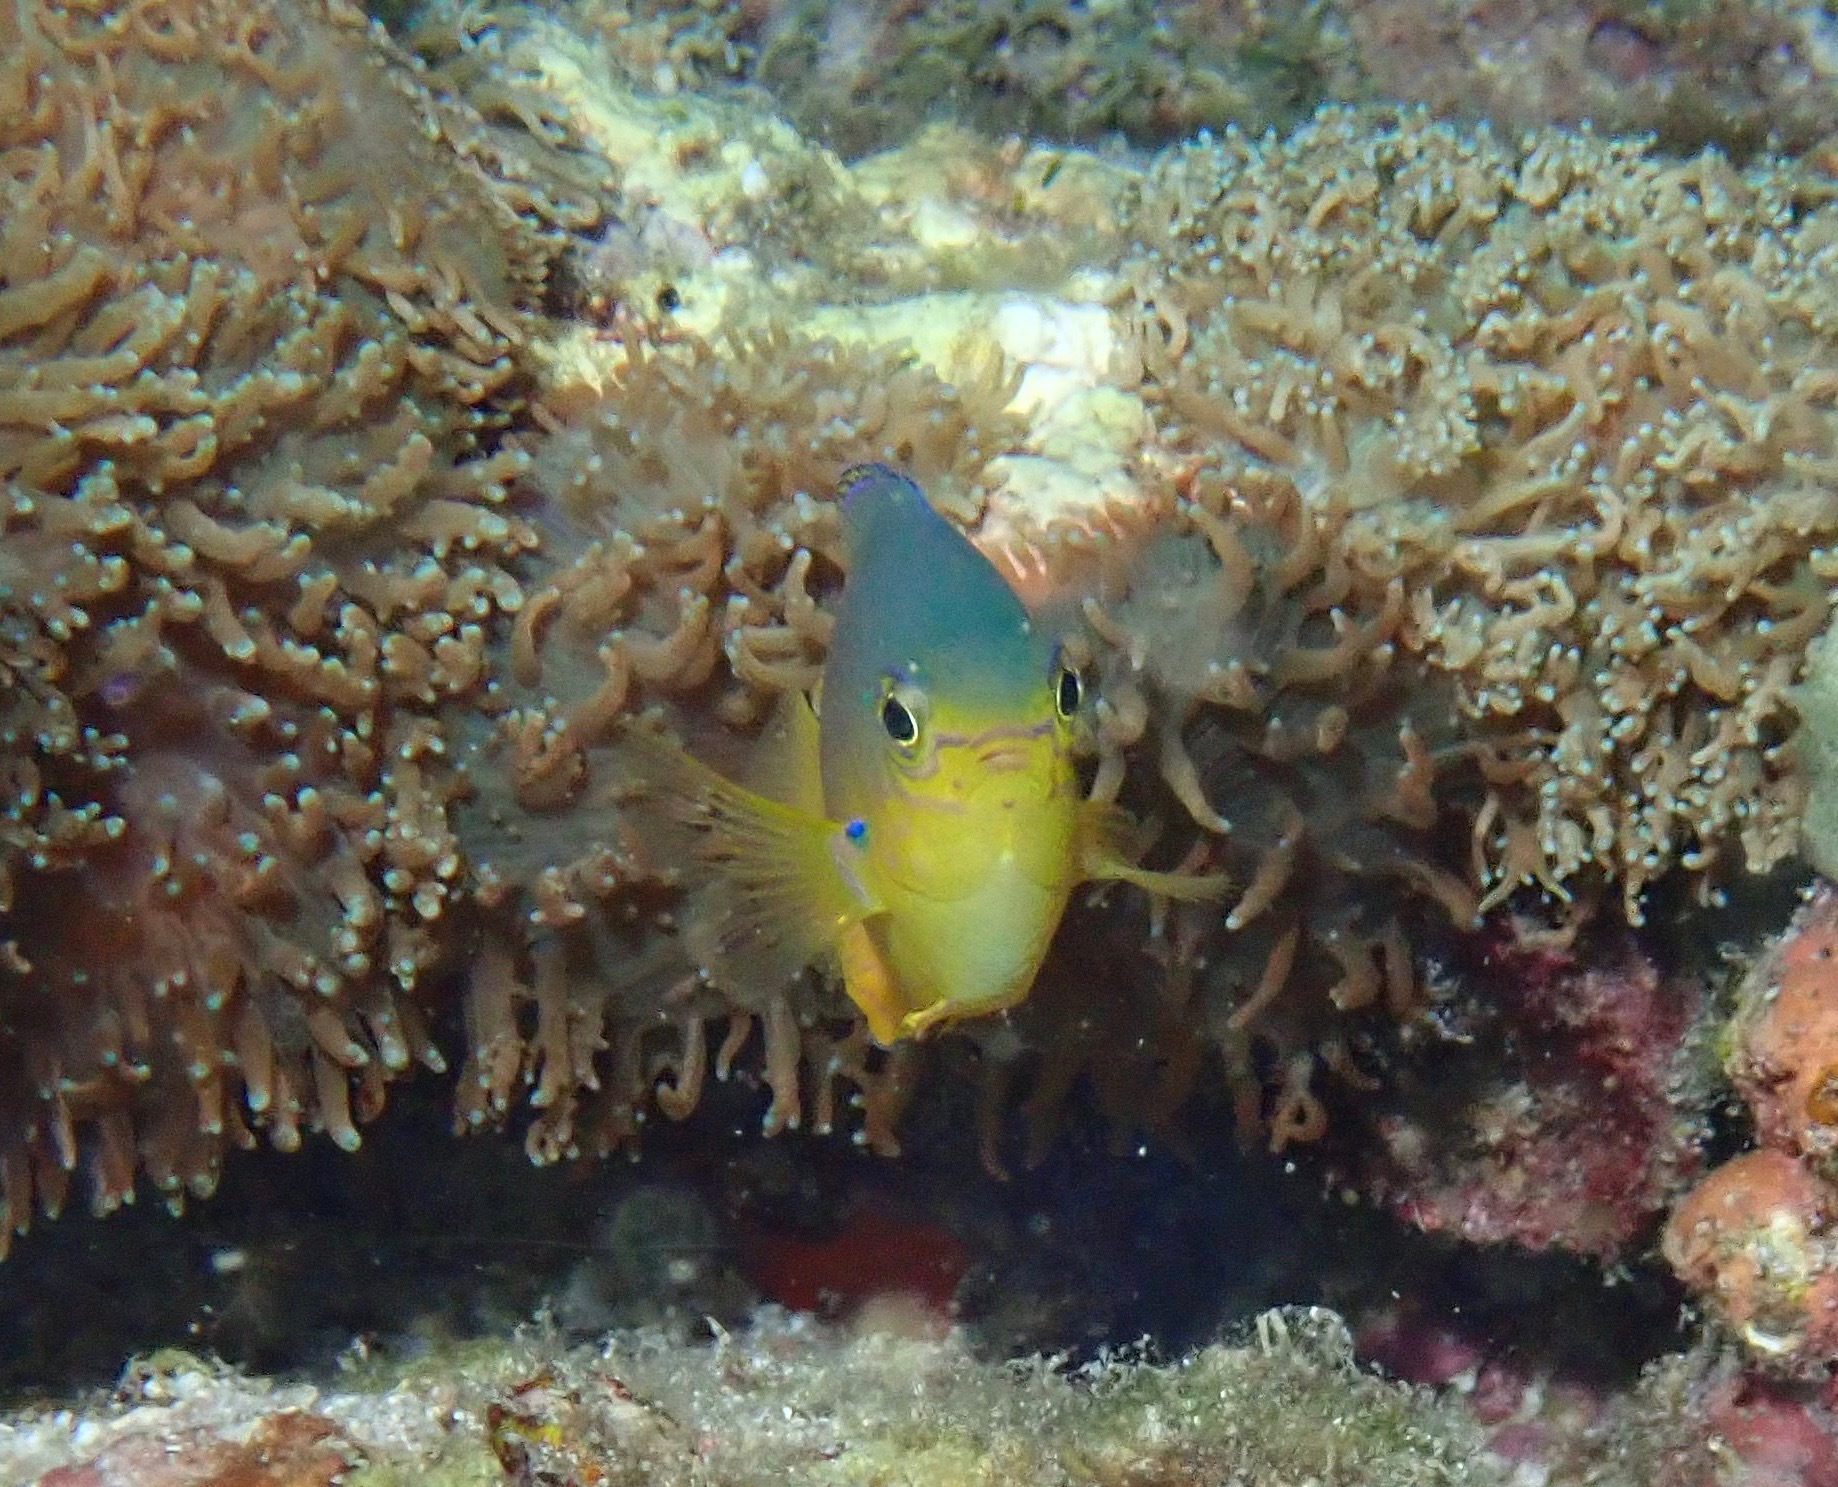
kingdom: Animalia
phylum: Chordata
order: Perciformes
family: Pomacentridae
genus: Pomacentrus
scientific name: Pomacentrus andamanensis
